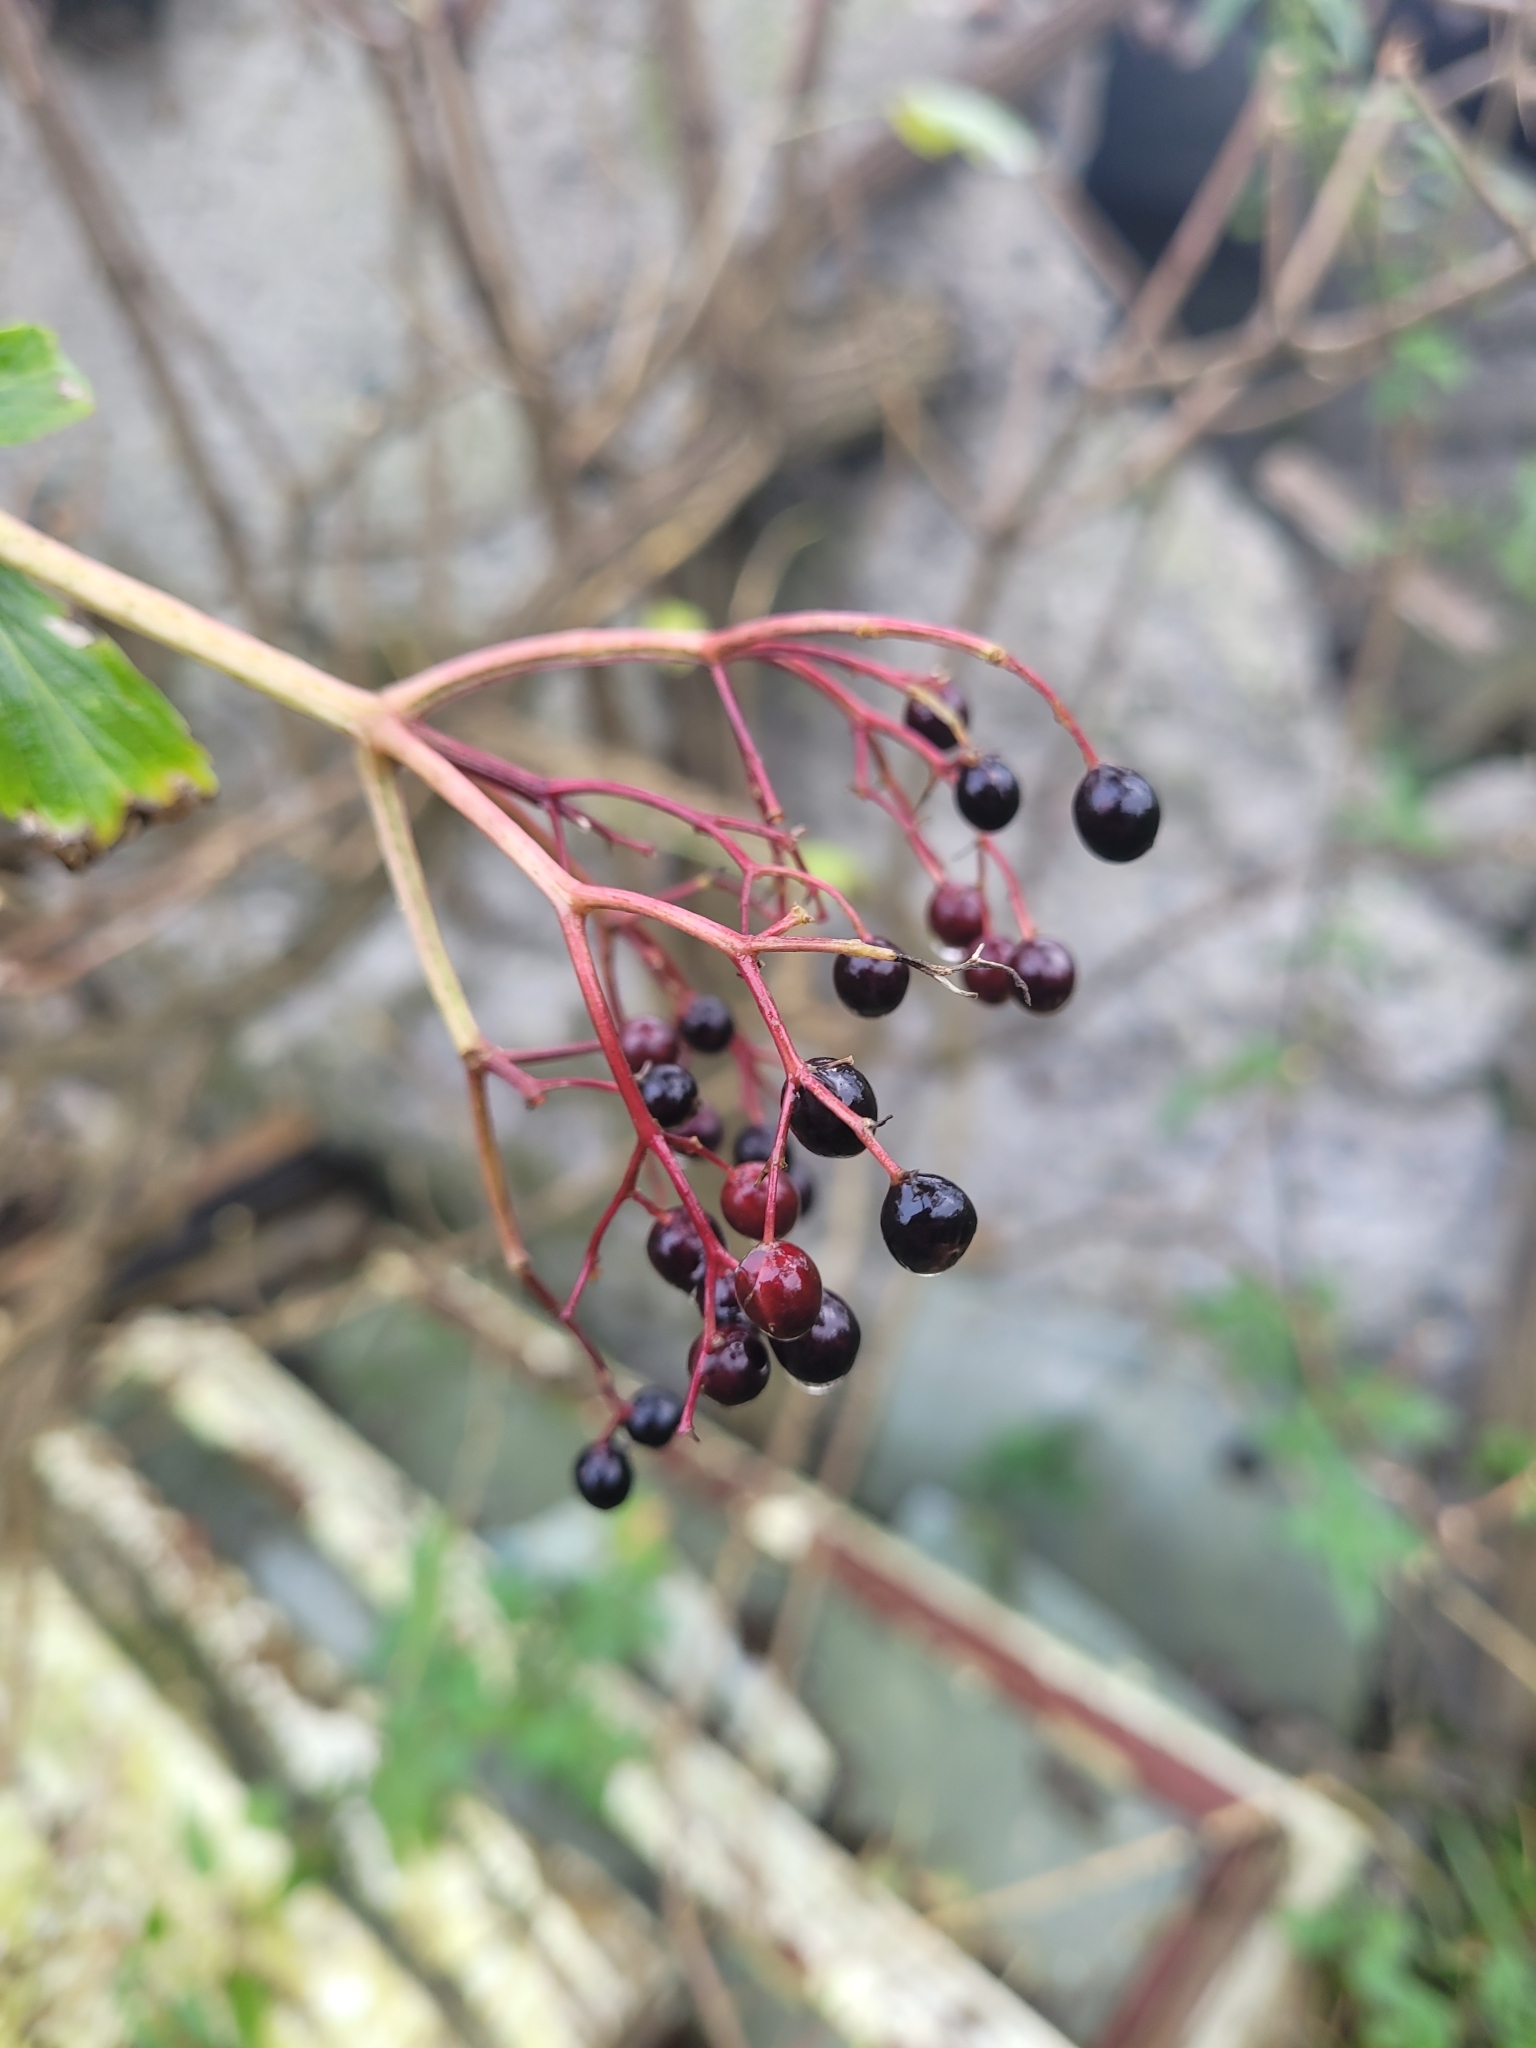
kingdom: Plantae
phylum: Tracheophyta
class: Magnoliopsida
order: Dipsacales
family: Viburnaceae
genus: Sambucus
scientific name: Sambucus nigra
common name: Elder
